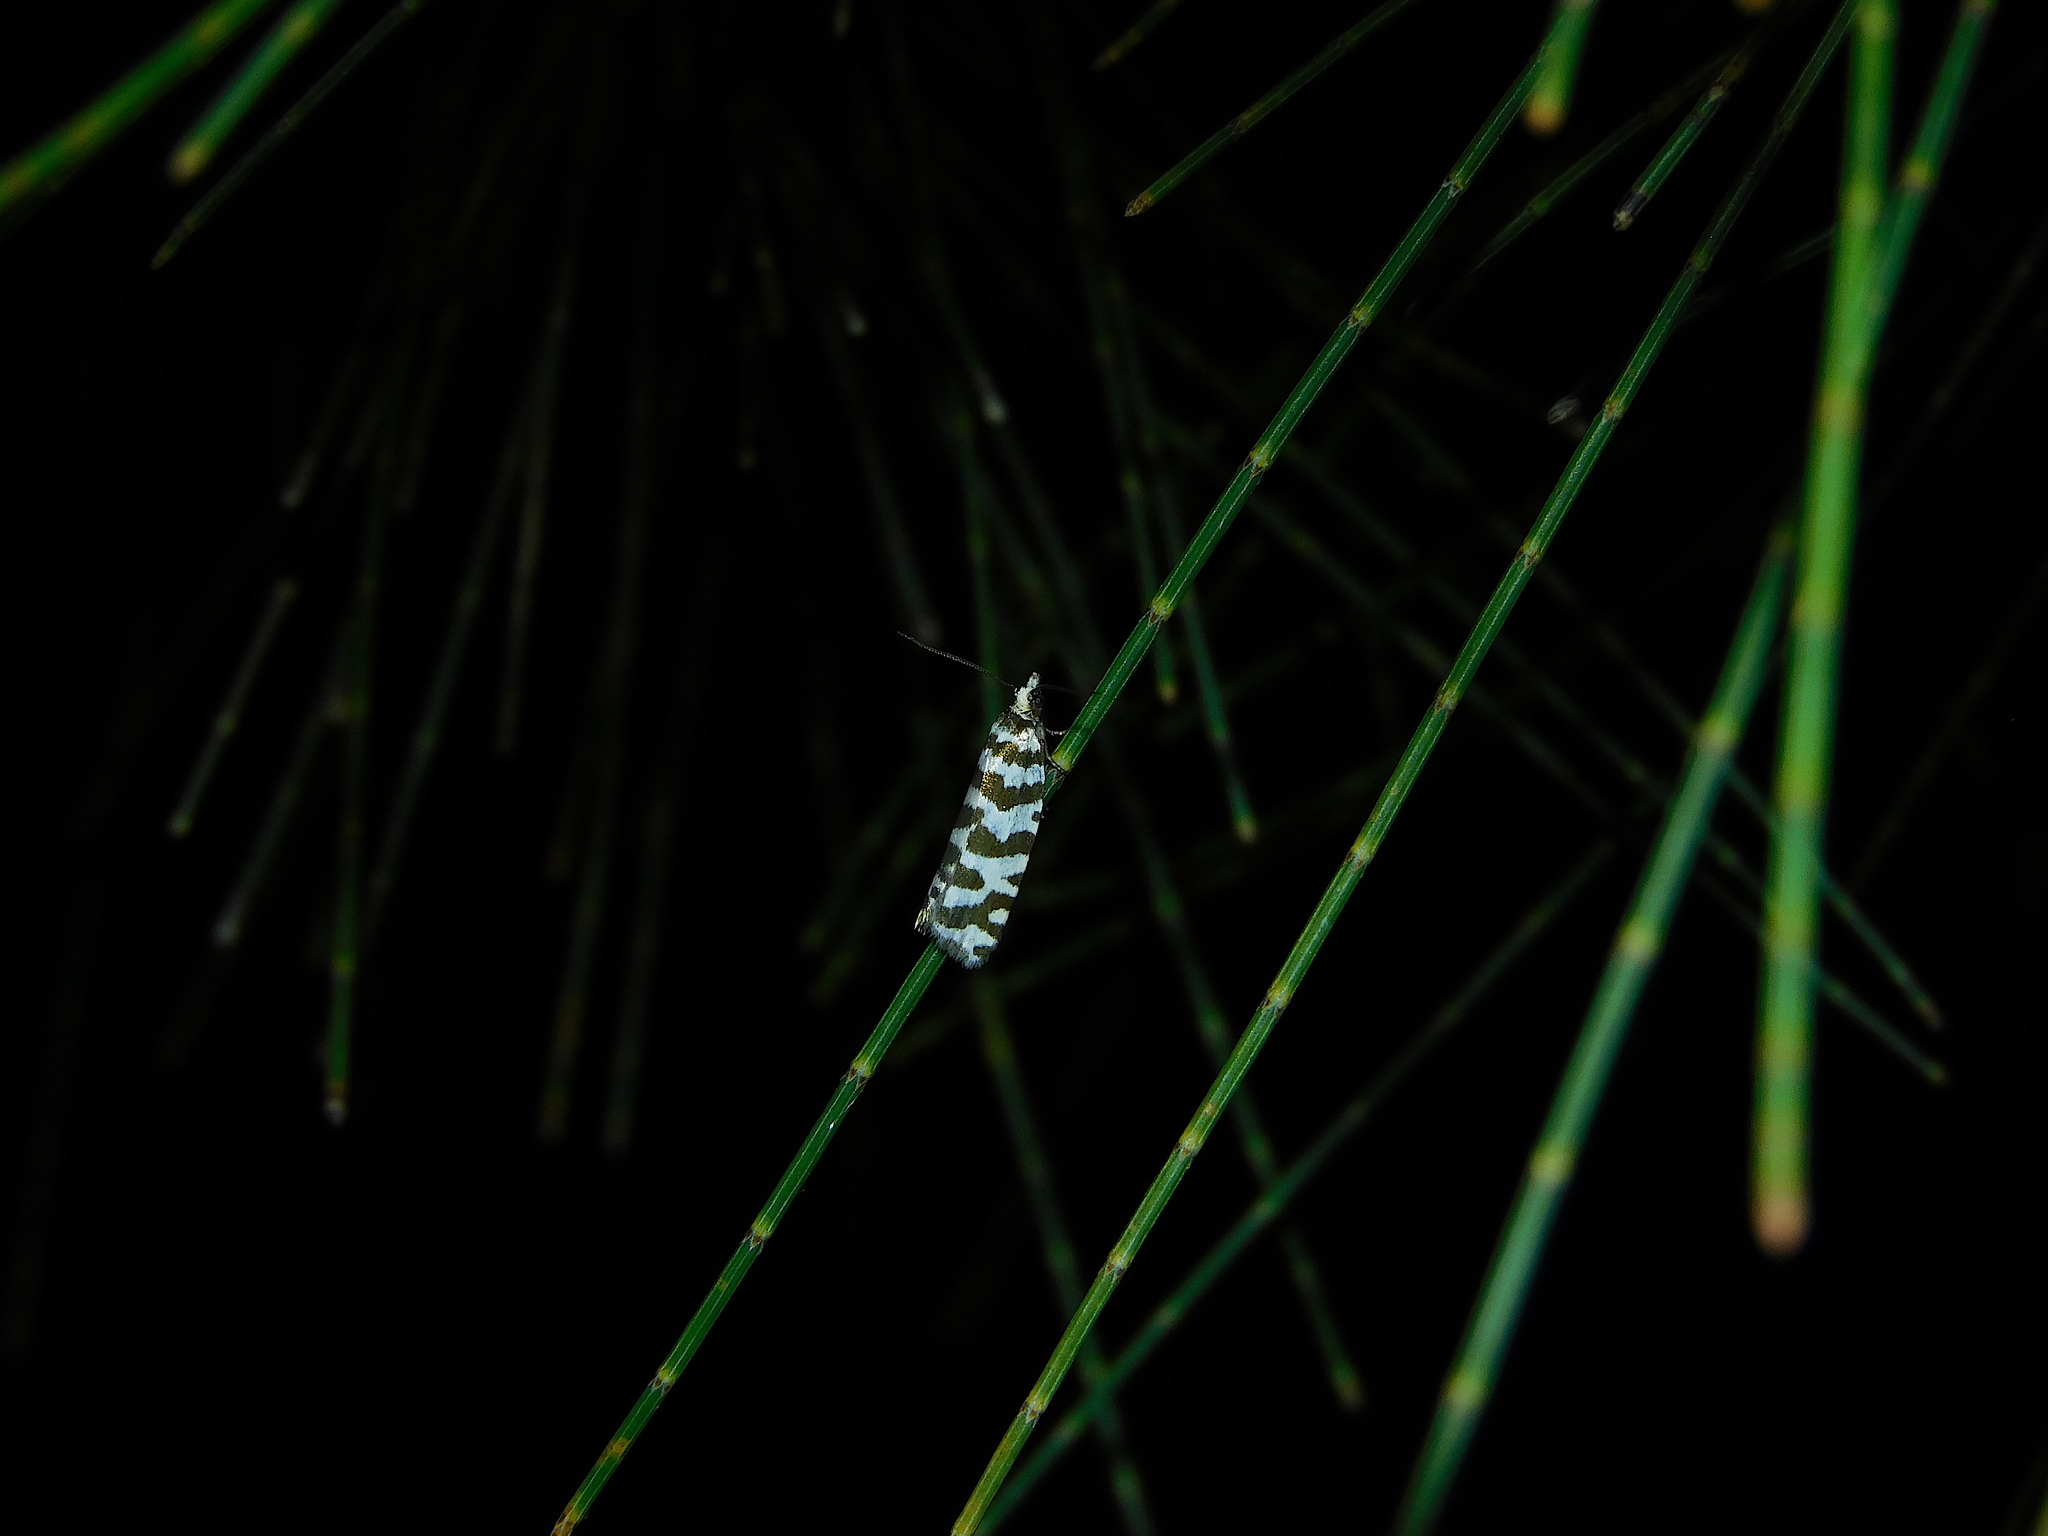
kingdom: Animalia
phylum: Arthropoda
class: Insecta
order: Lepidoptera
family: Tortricidae
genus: Tortrix
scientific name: Tortrix campylosticha
